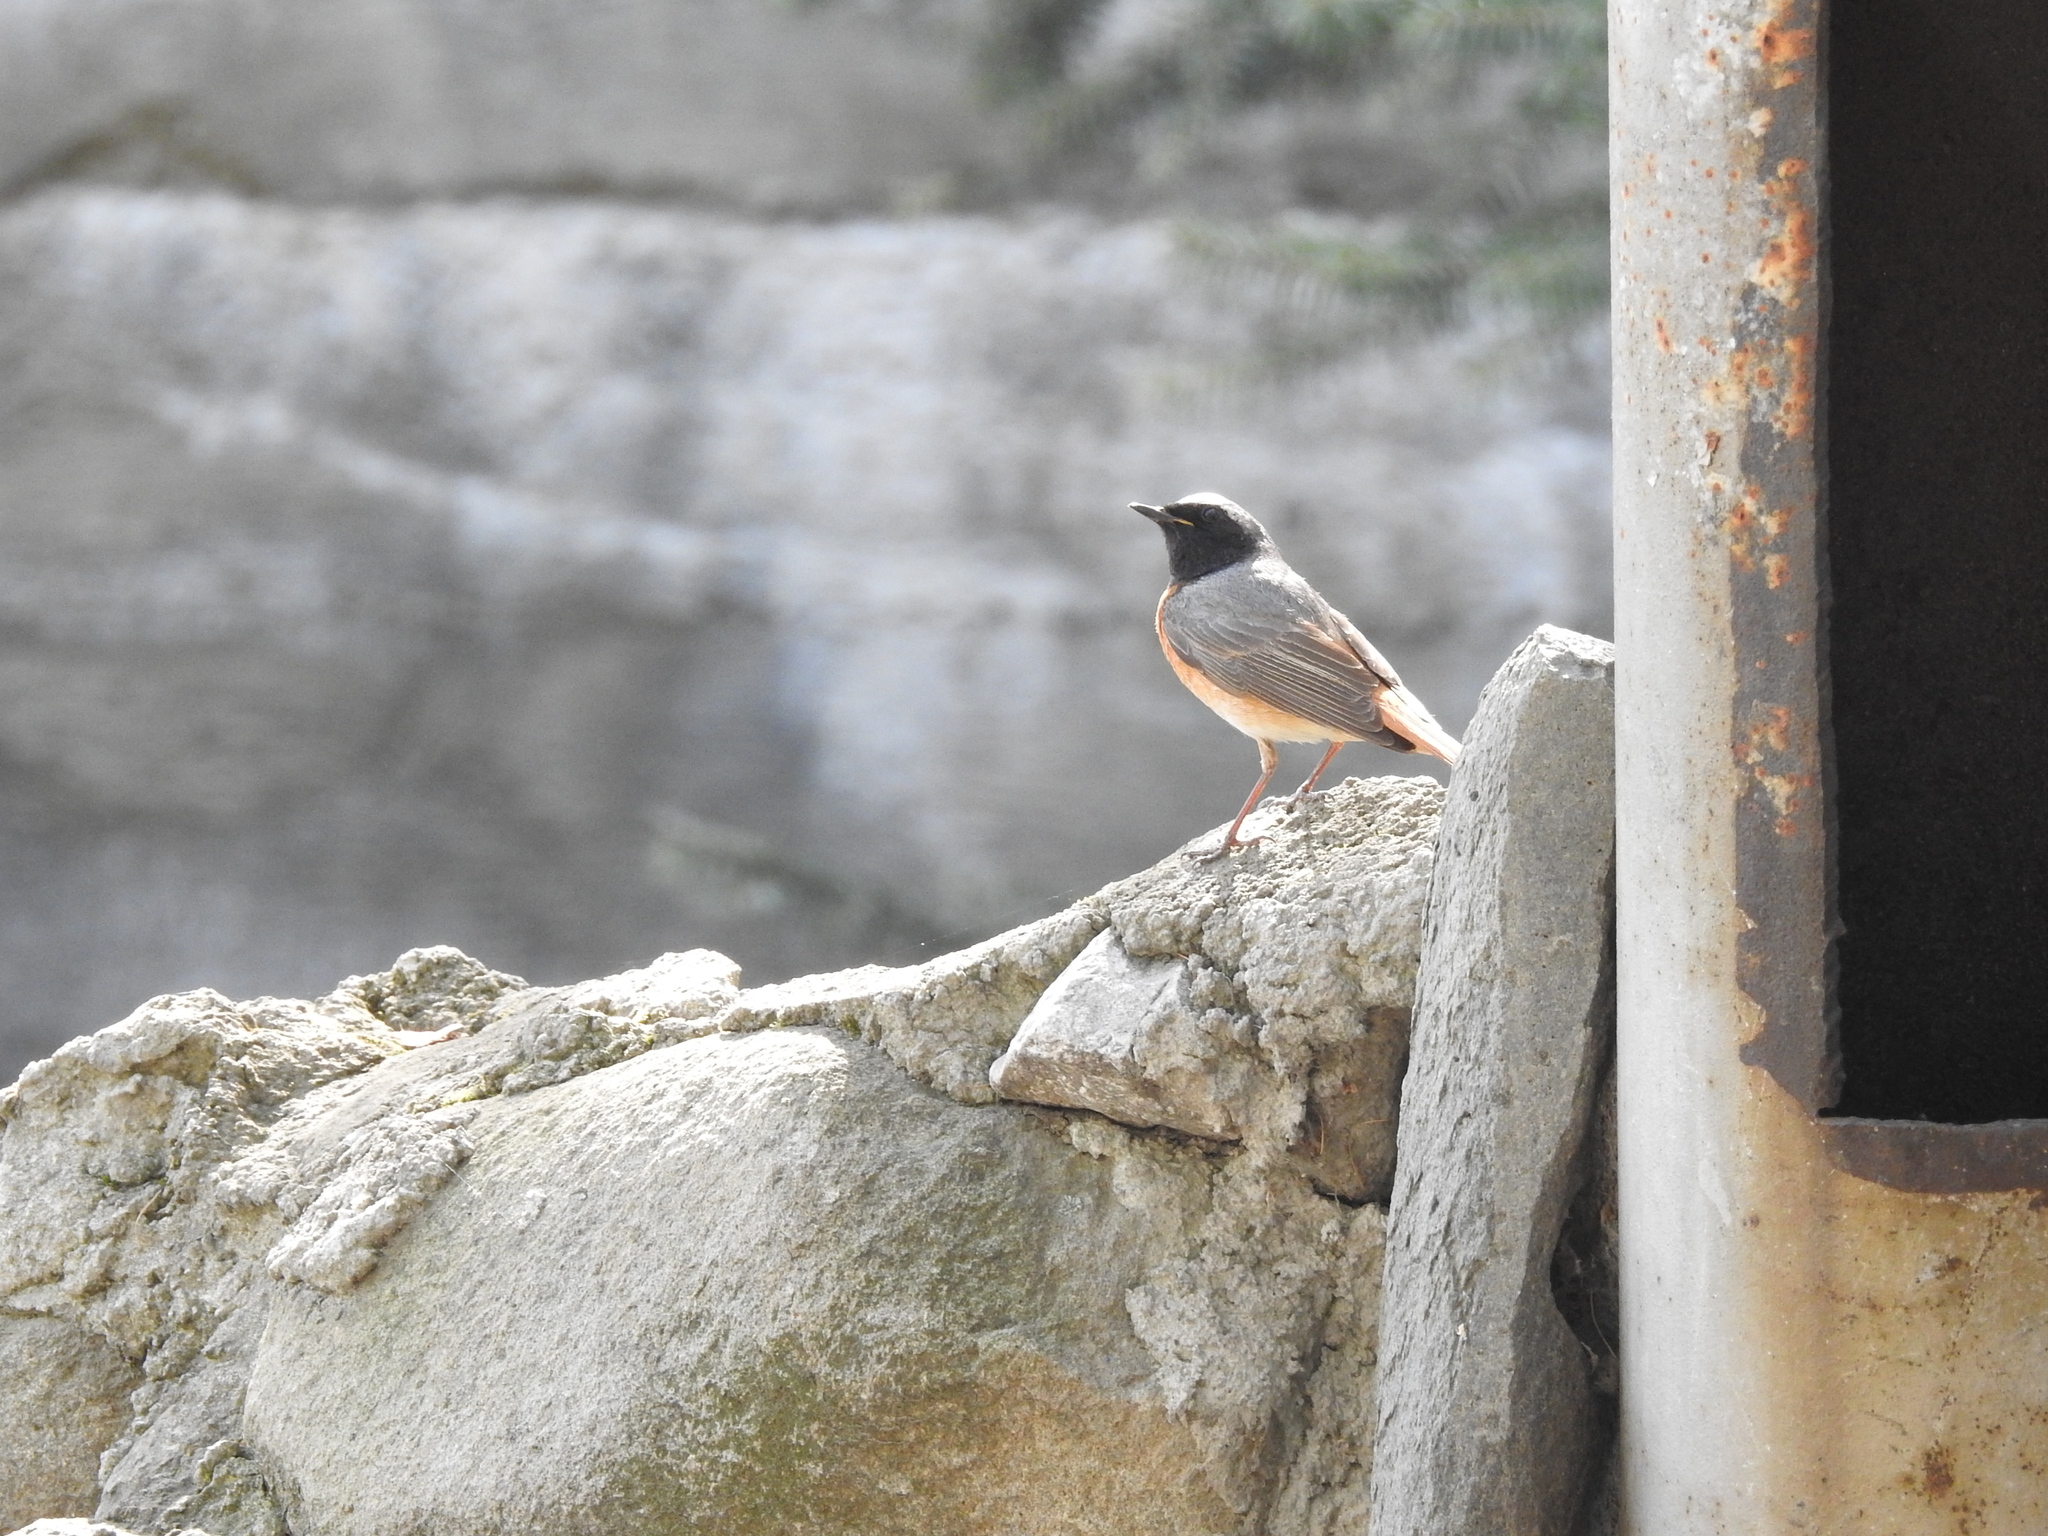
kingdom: Animalia
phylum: Chordata
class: Aves
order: Passeriformes
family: Muscicapidae
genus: Phoenicurus
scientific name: Phoenicurus phoenicurus
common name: Common redstart
